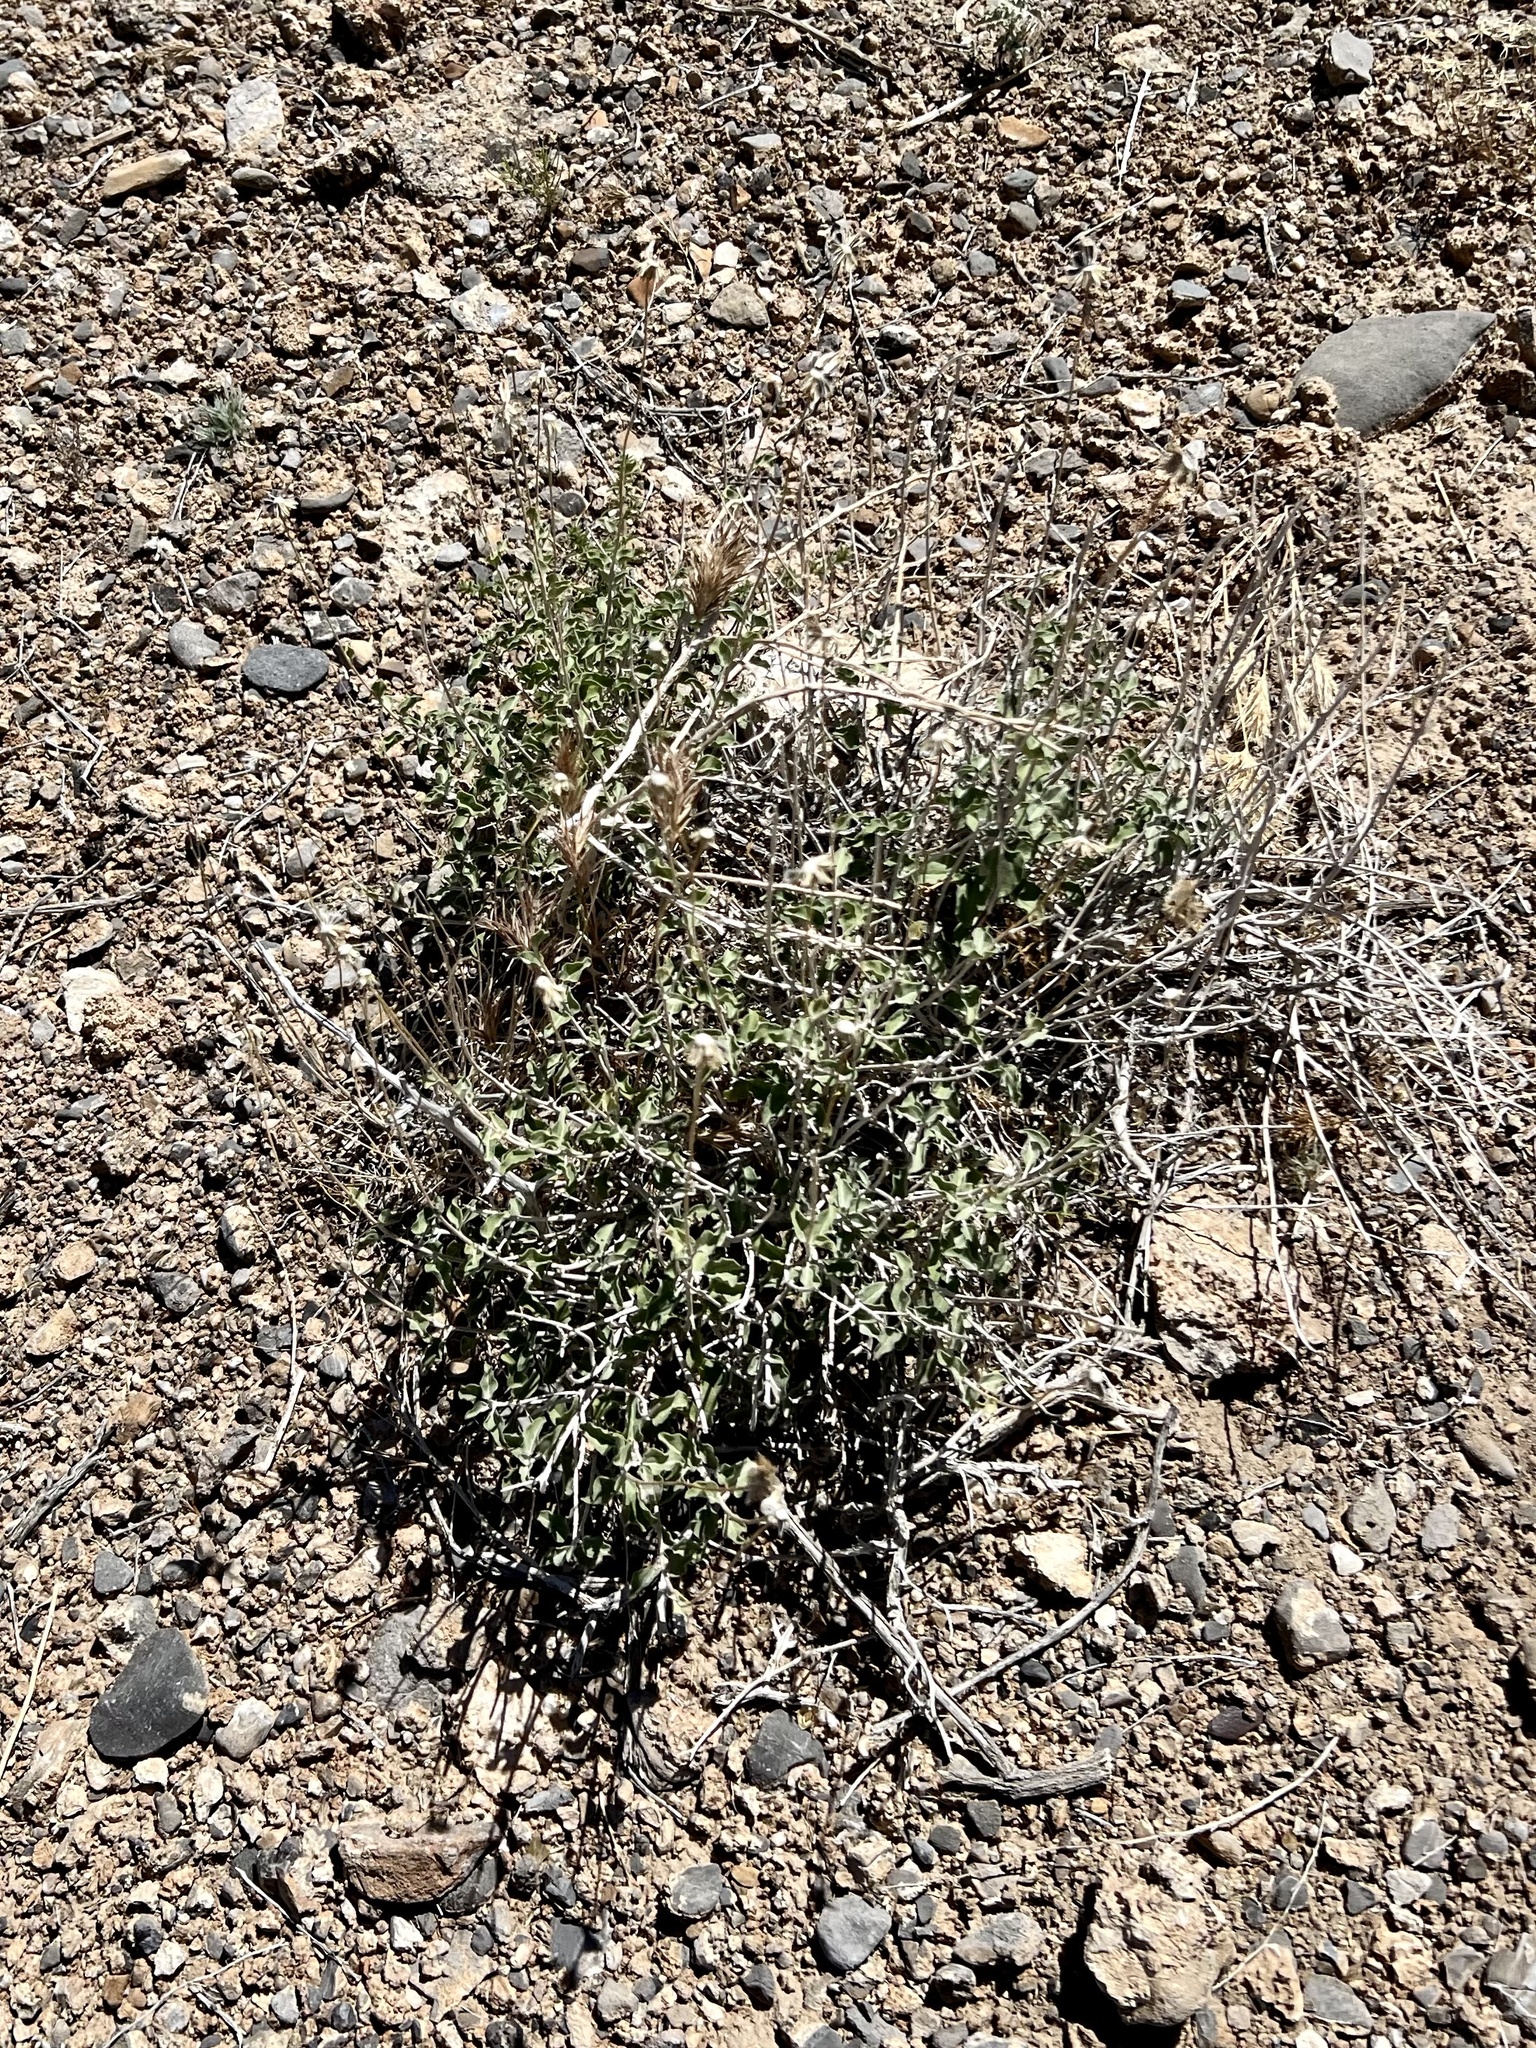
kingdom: Plantae
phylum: Tracheophyta
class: Magnoliopsida
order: Asterales
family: Asteraceae
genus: Encelia
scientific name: Encelia virginensis
